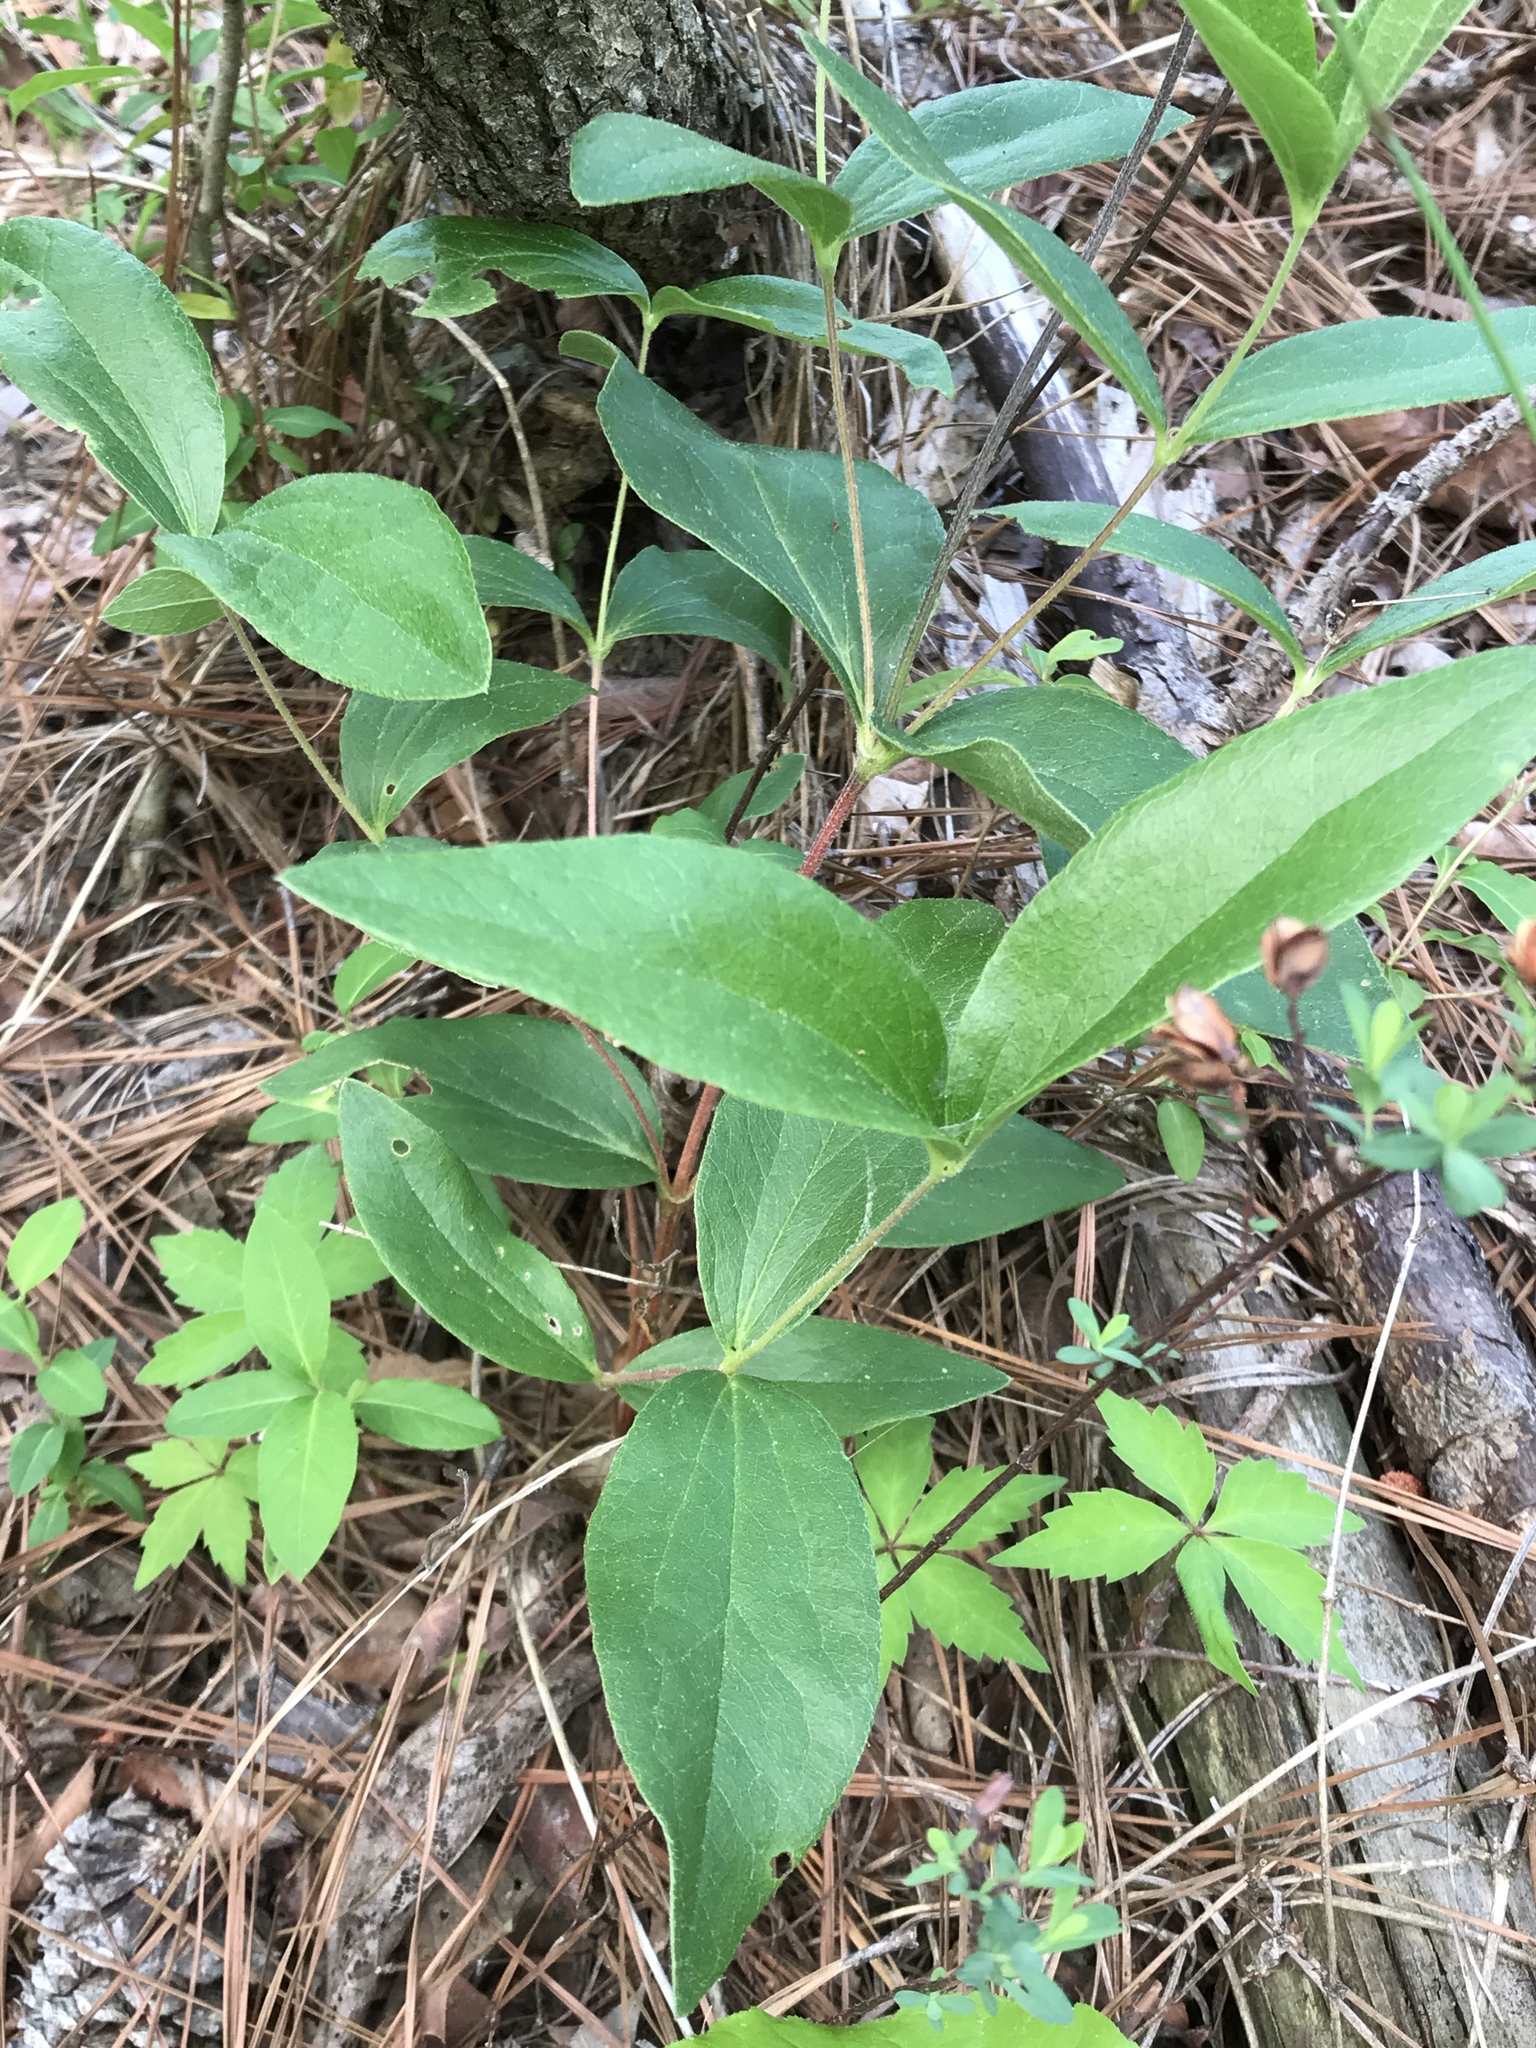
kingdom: Plantae
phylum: Tracheophyta
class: Magnoliopsida
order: Ranunculales
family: Ranunculaceae
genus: Clematis
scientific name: Clematis ochroleuca
